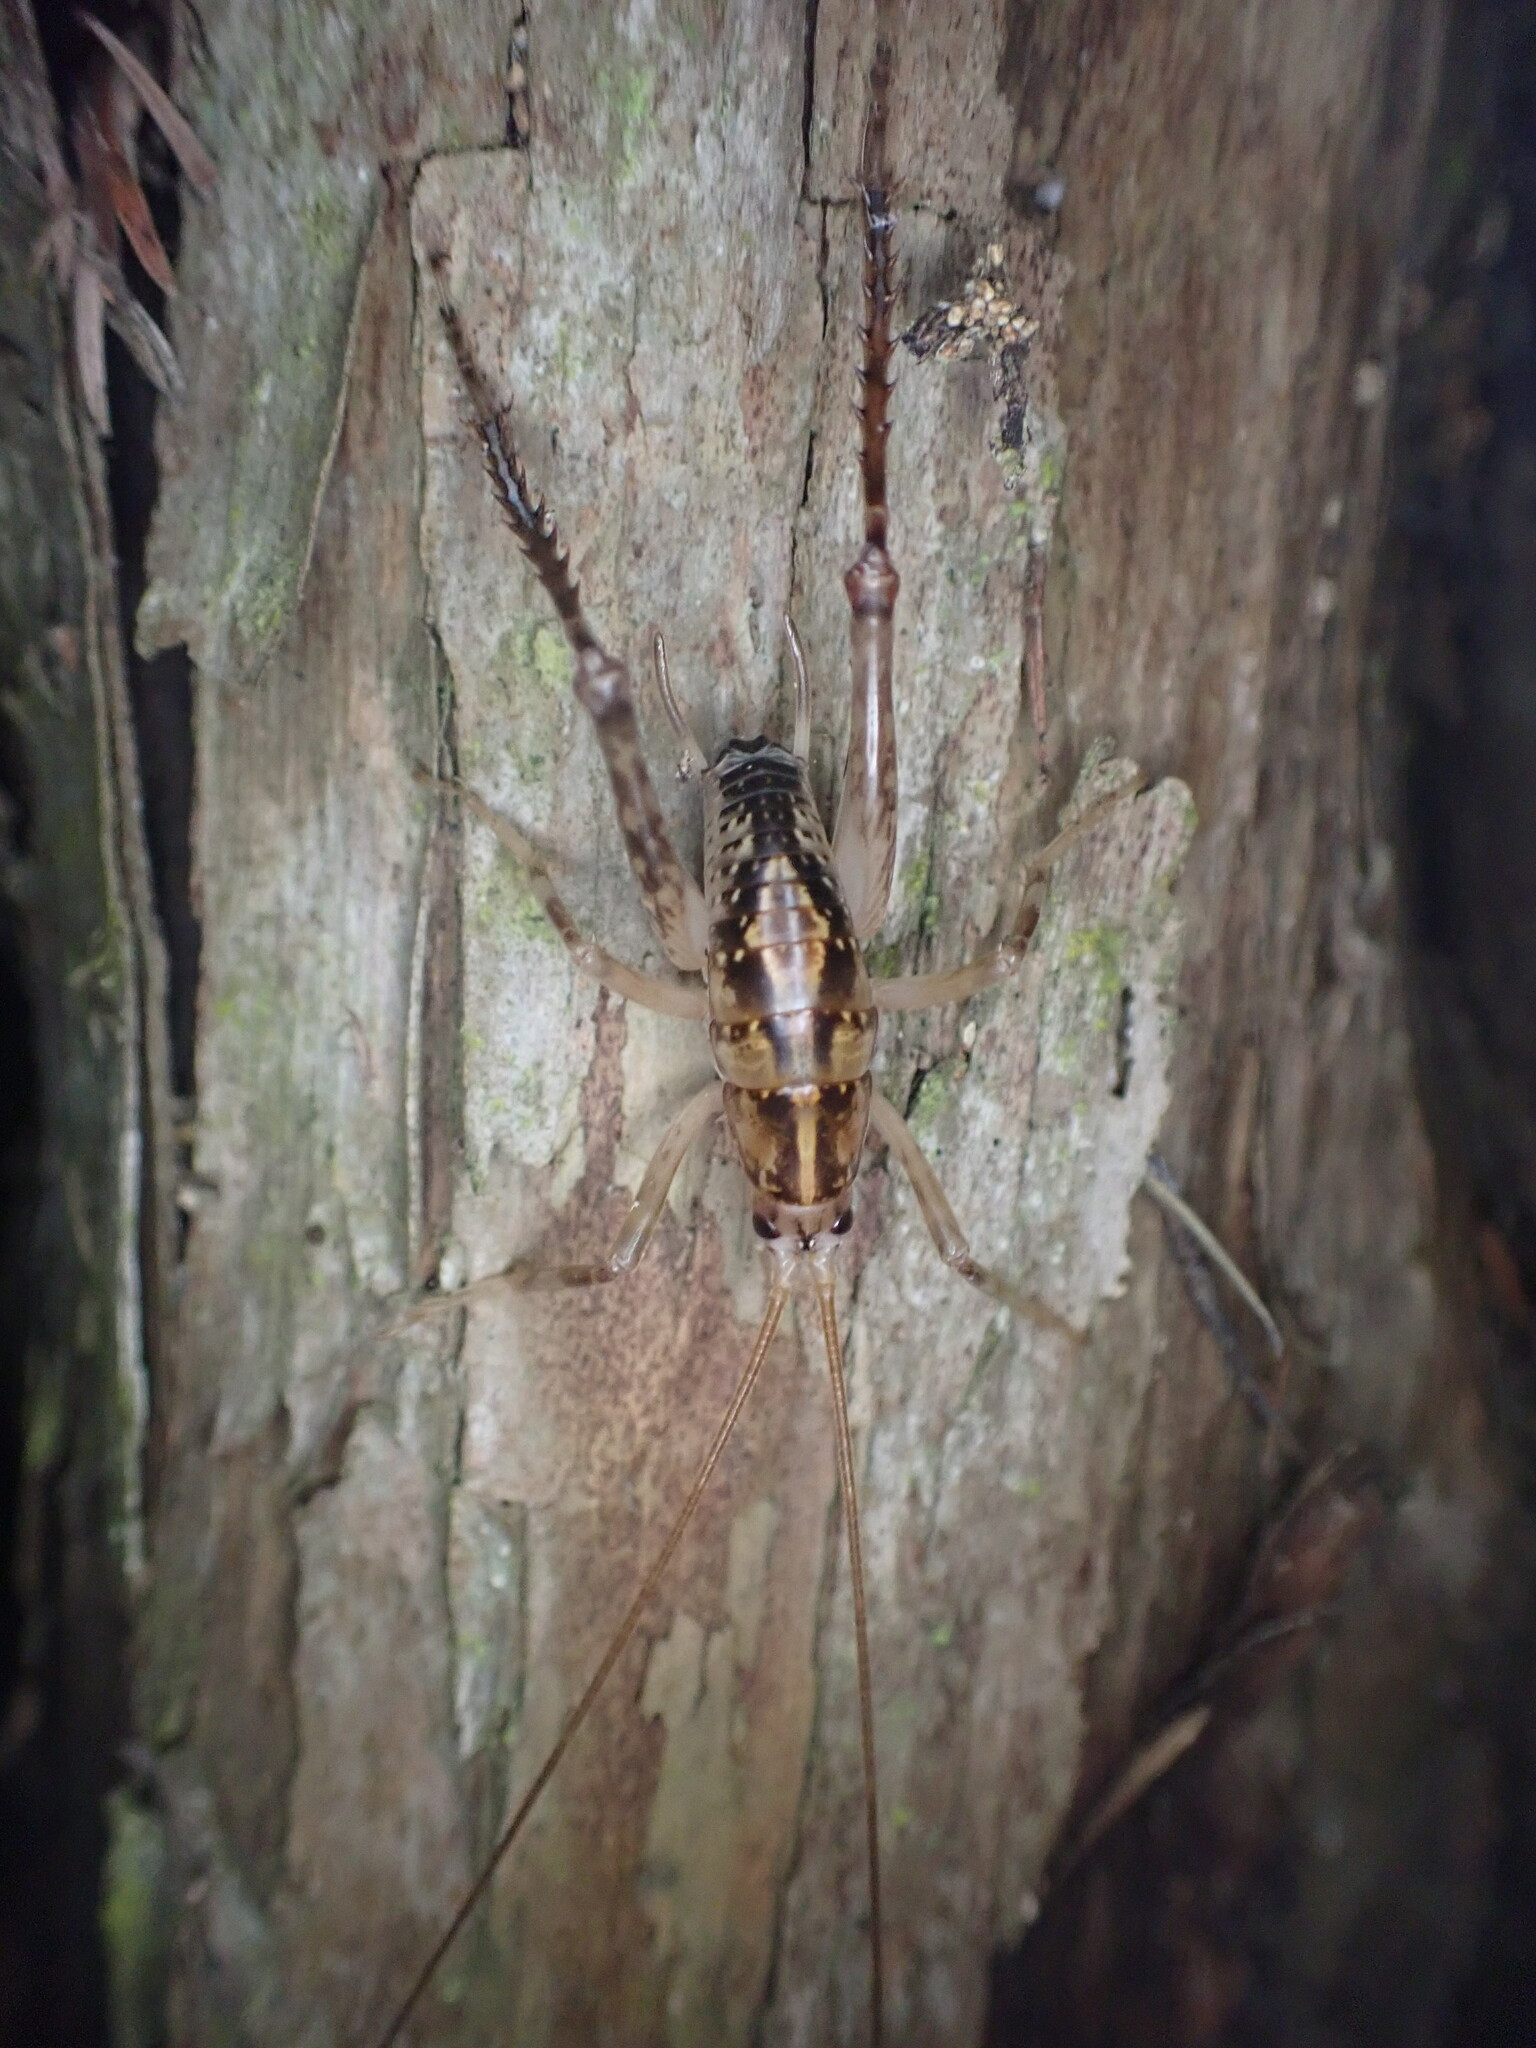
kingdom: Animalia
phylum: Arthropoda
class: Insecta
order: Orthoptera
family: Rhaphidophoridae
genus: Talitropsis
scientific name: Talitropsis sedilloti
